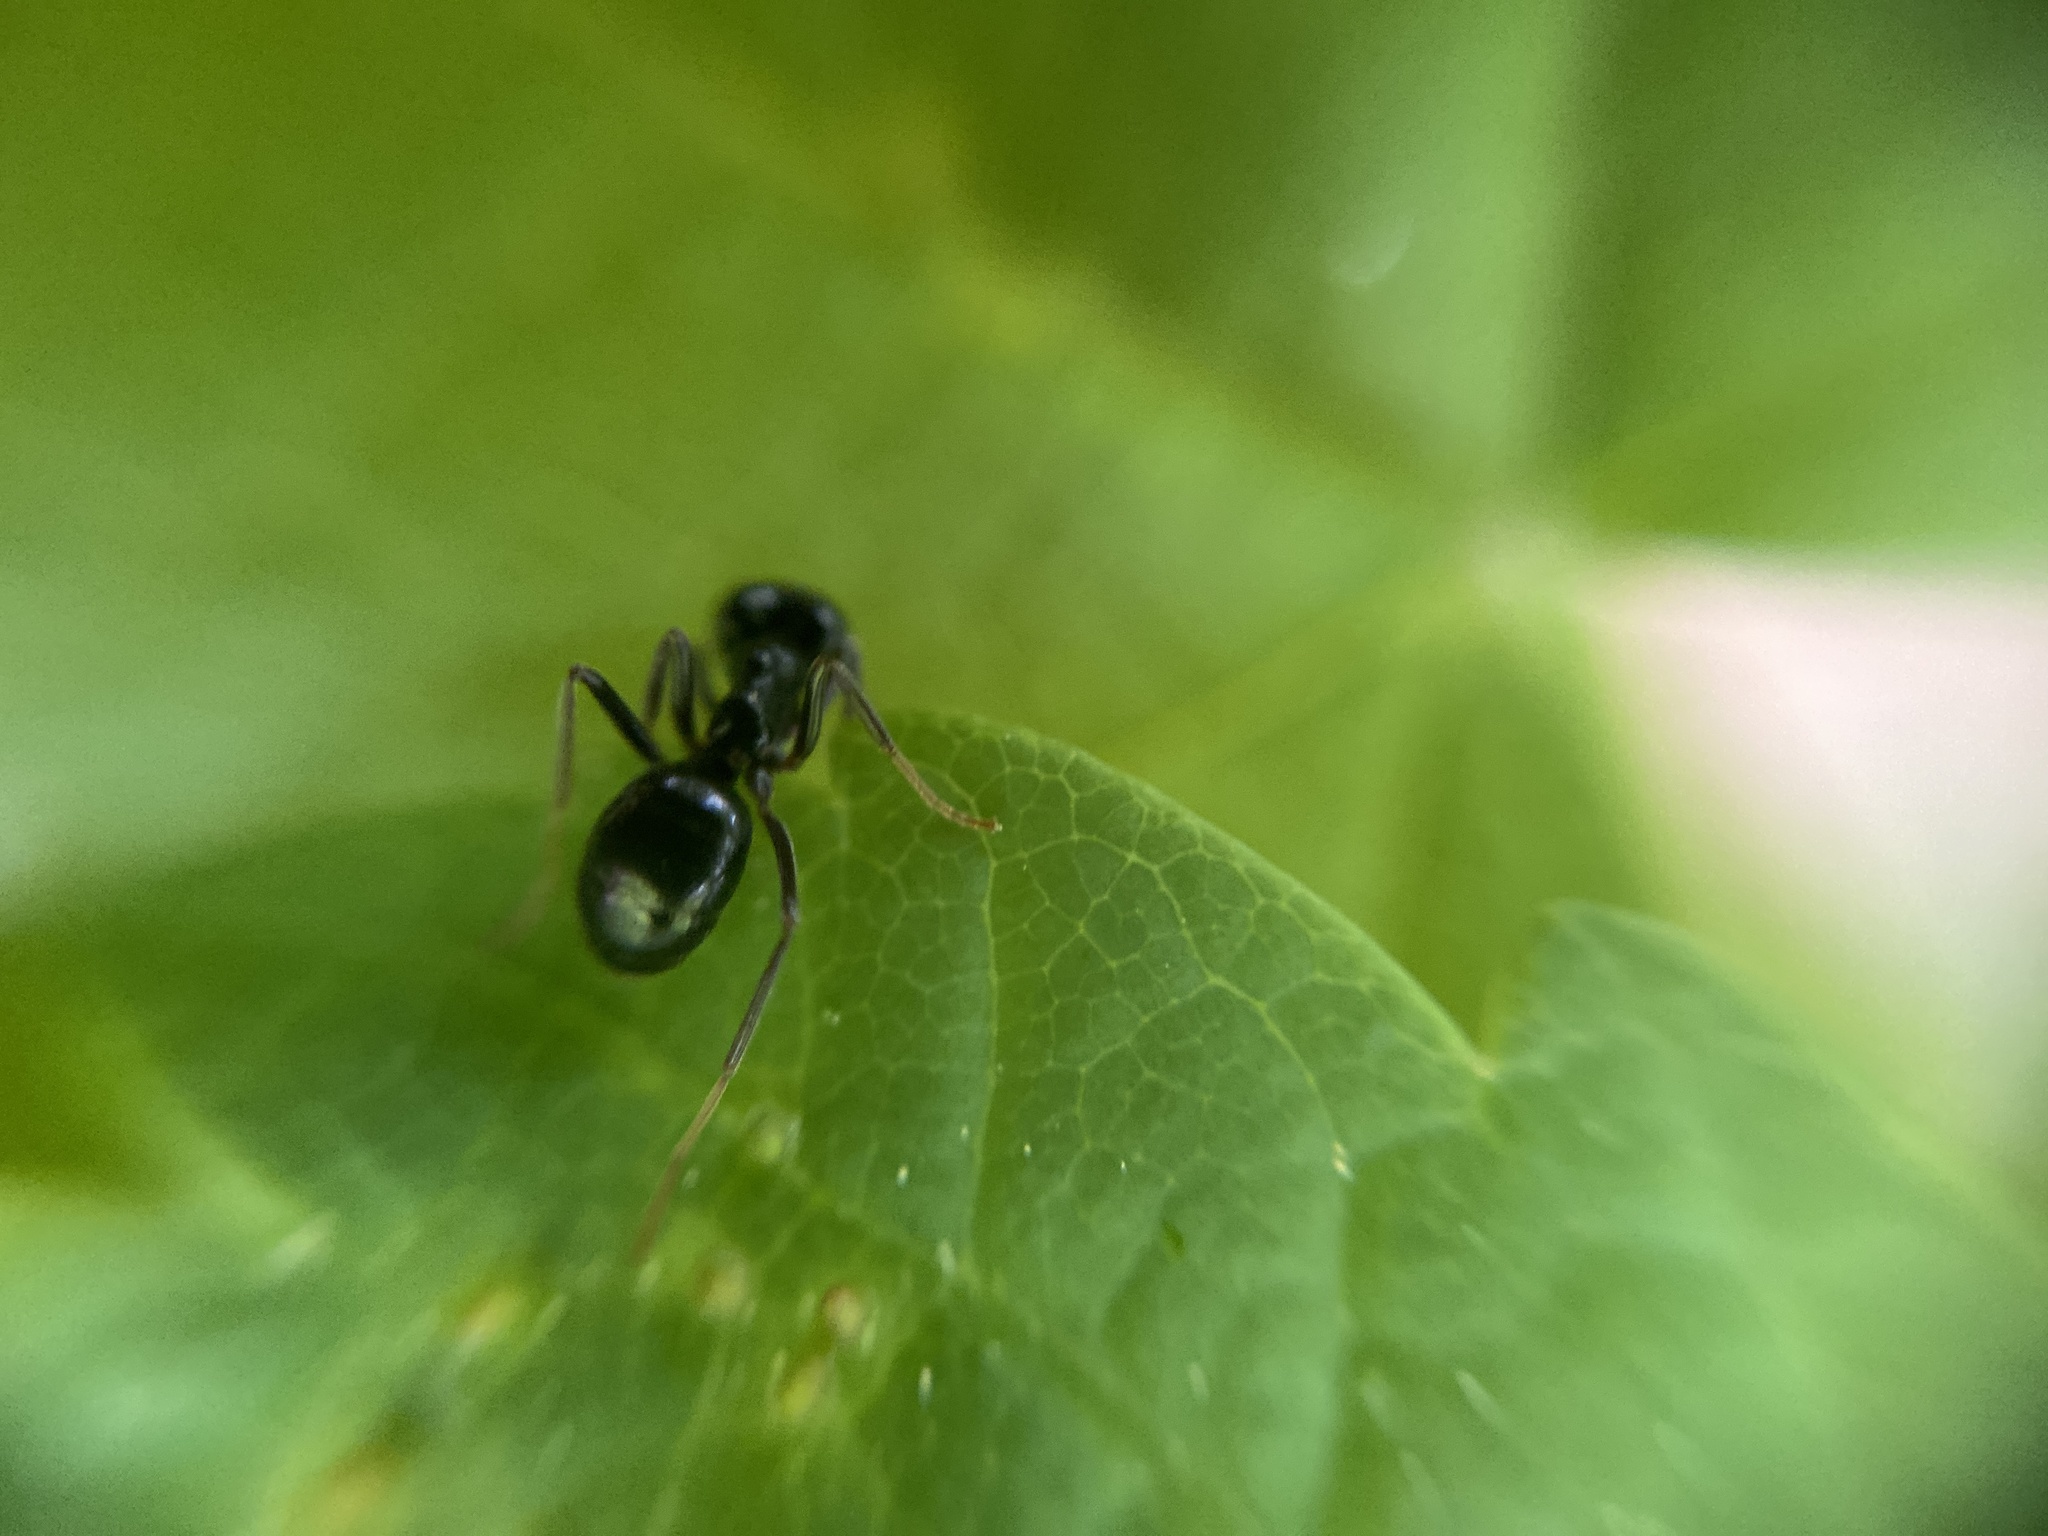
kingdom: Animalia
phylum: Arthropoda
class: Insecta
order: Hymenoptera
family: Formicidae
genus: Lasius
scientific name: Lasius fuliginosus
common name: Jet ant
